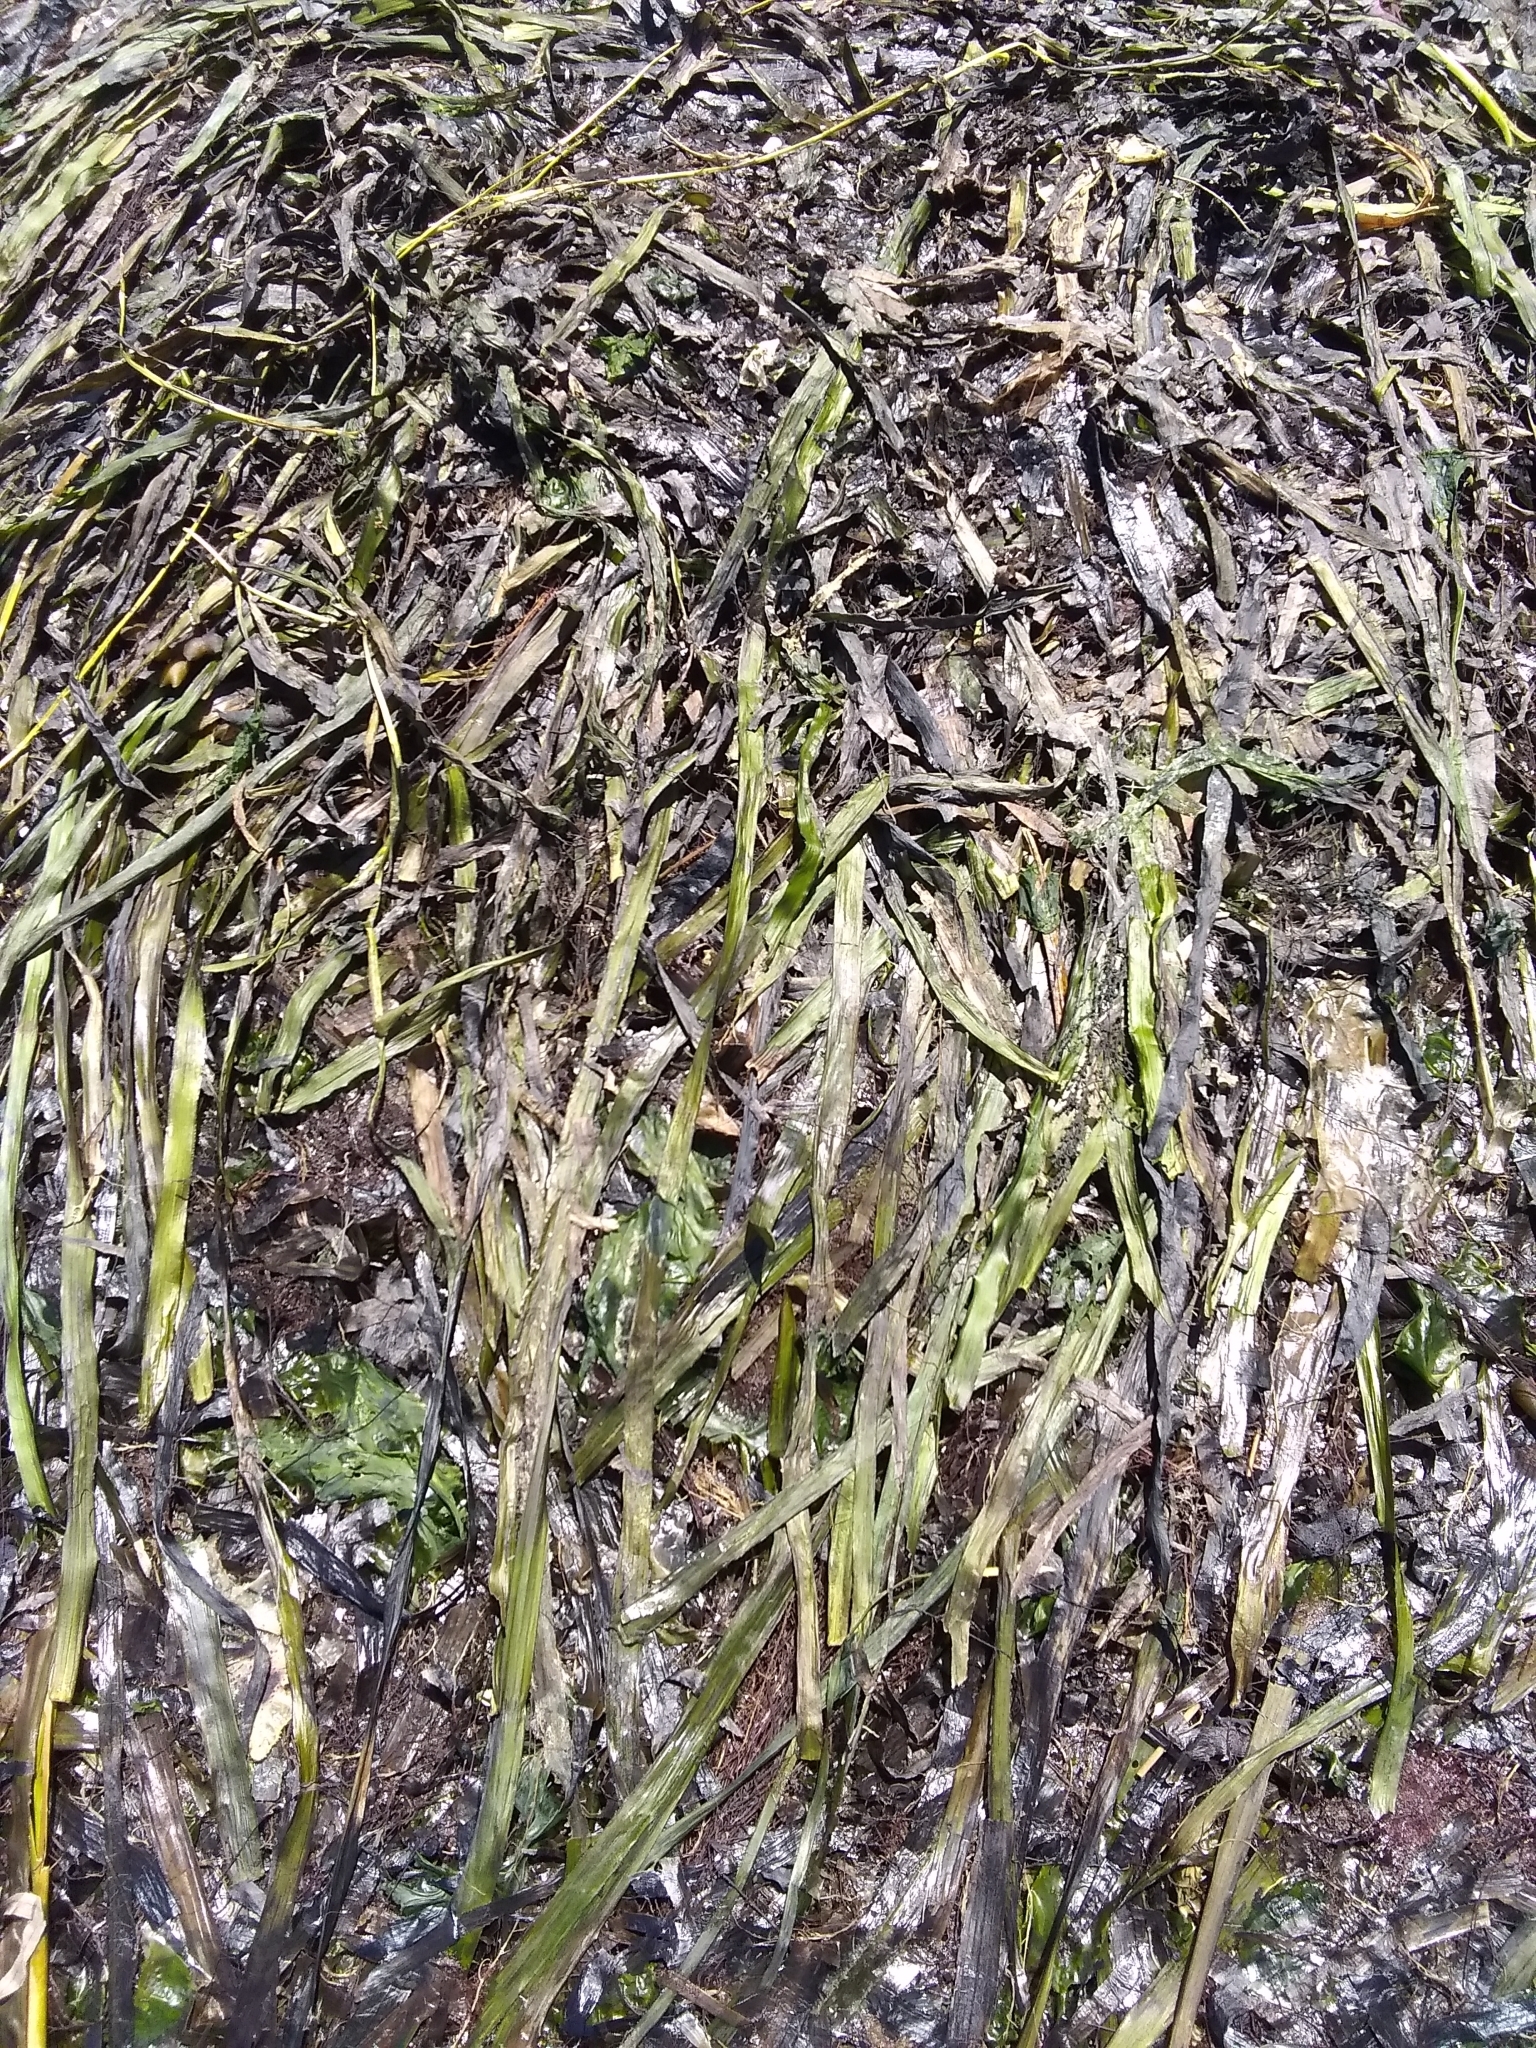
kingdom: Plantae
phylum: Tracheophyta
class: Liliopsida
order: Alismatales
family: Zosteraceae
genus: Zostera
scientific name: Zostera marina
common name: Eelgrass
